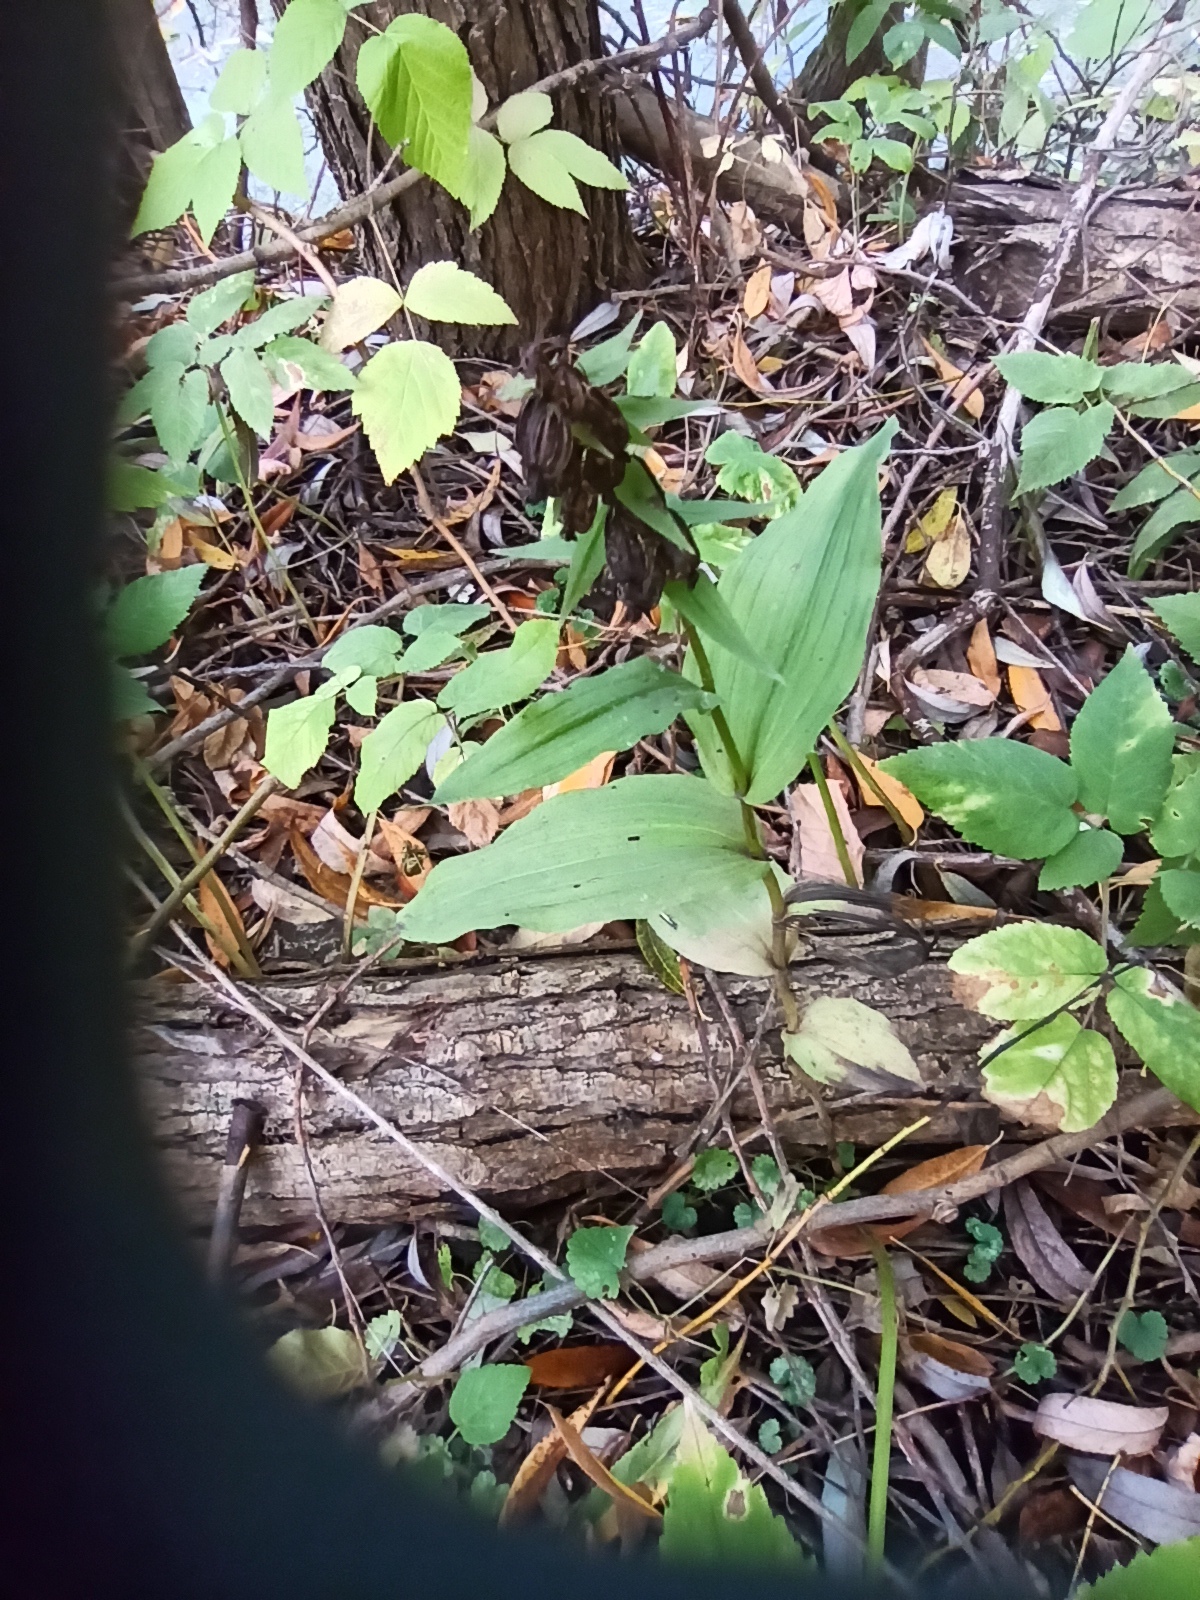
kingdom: Plantae
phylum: Tracheophyta
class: Liliopsida
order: Asparagales
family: Orchidaceae
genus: Epipactis
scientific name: Epipactis helleborine
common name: Broad-leaved helleborine
